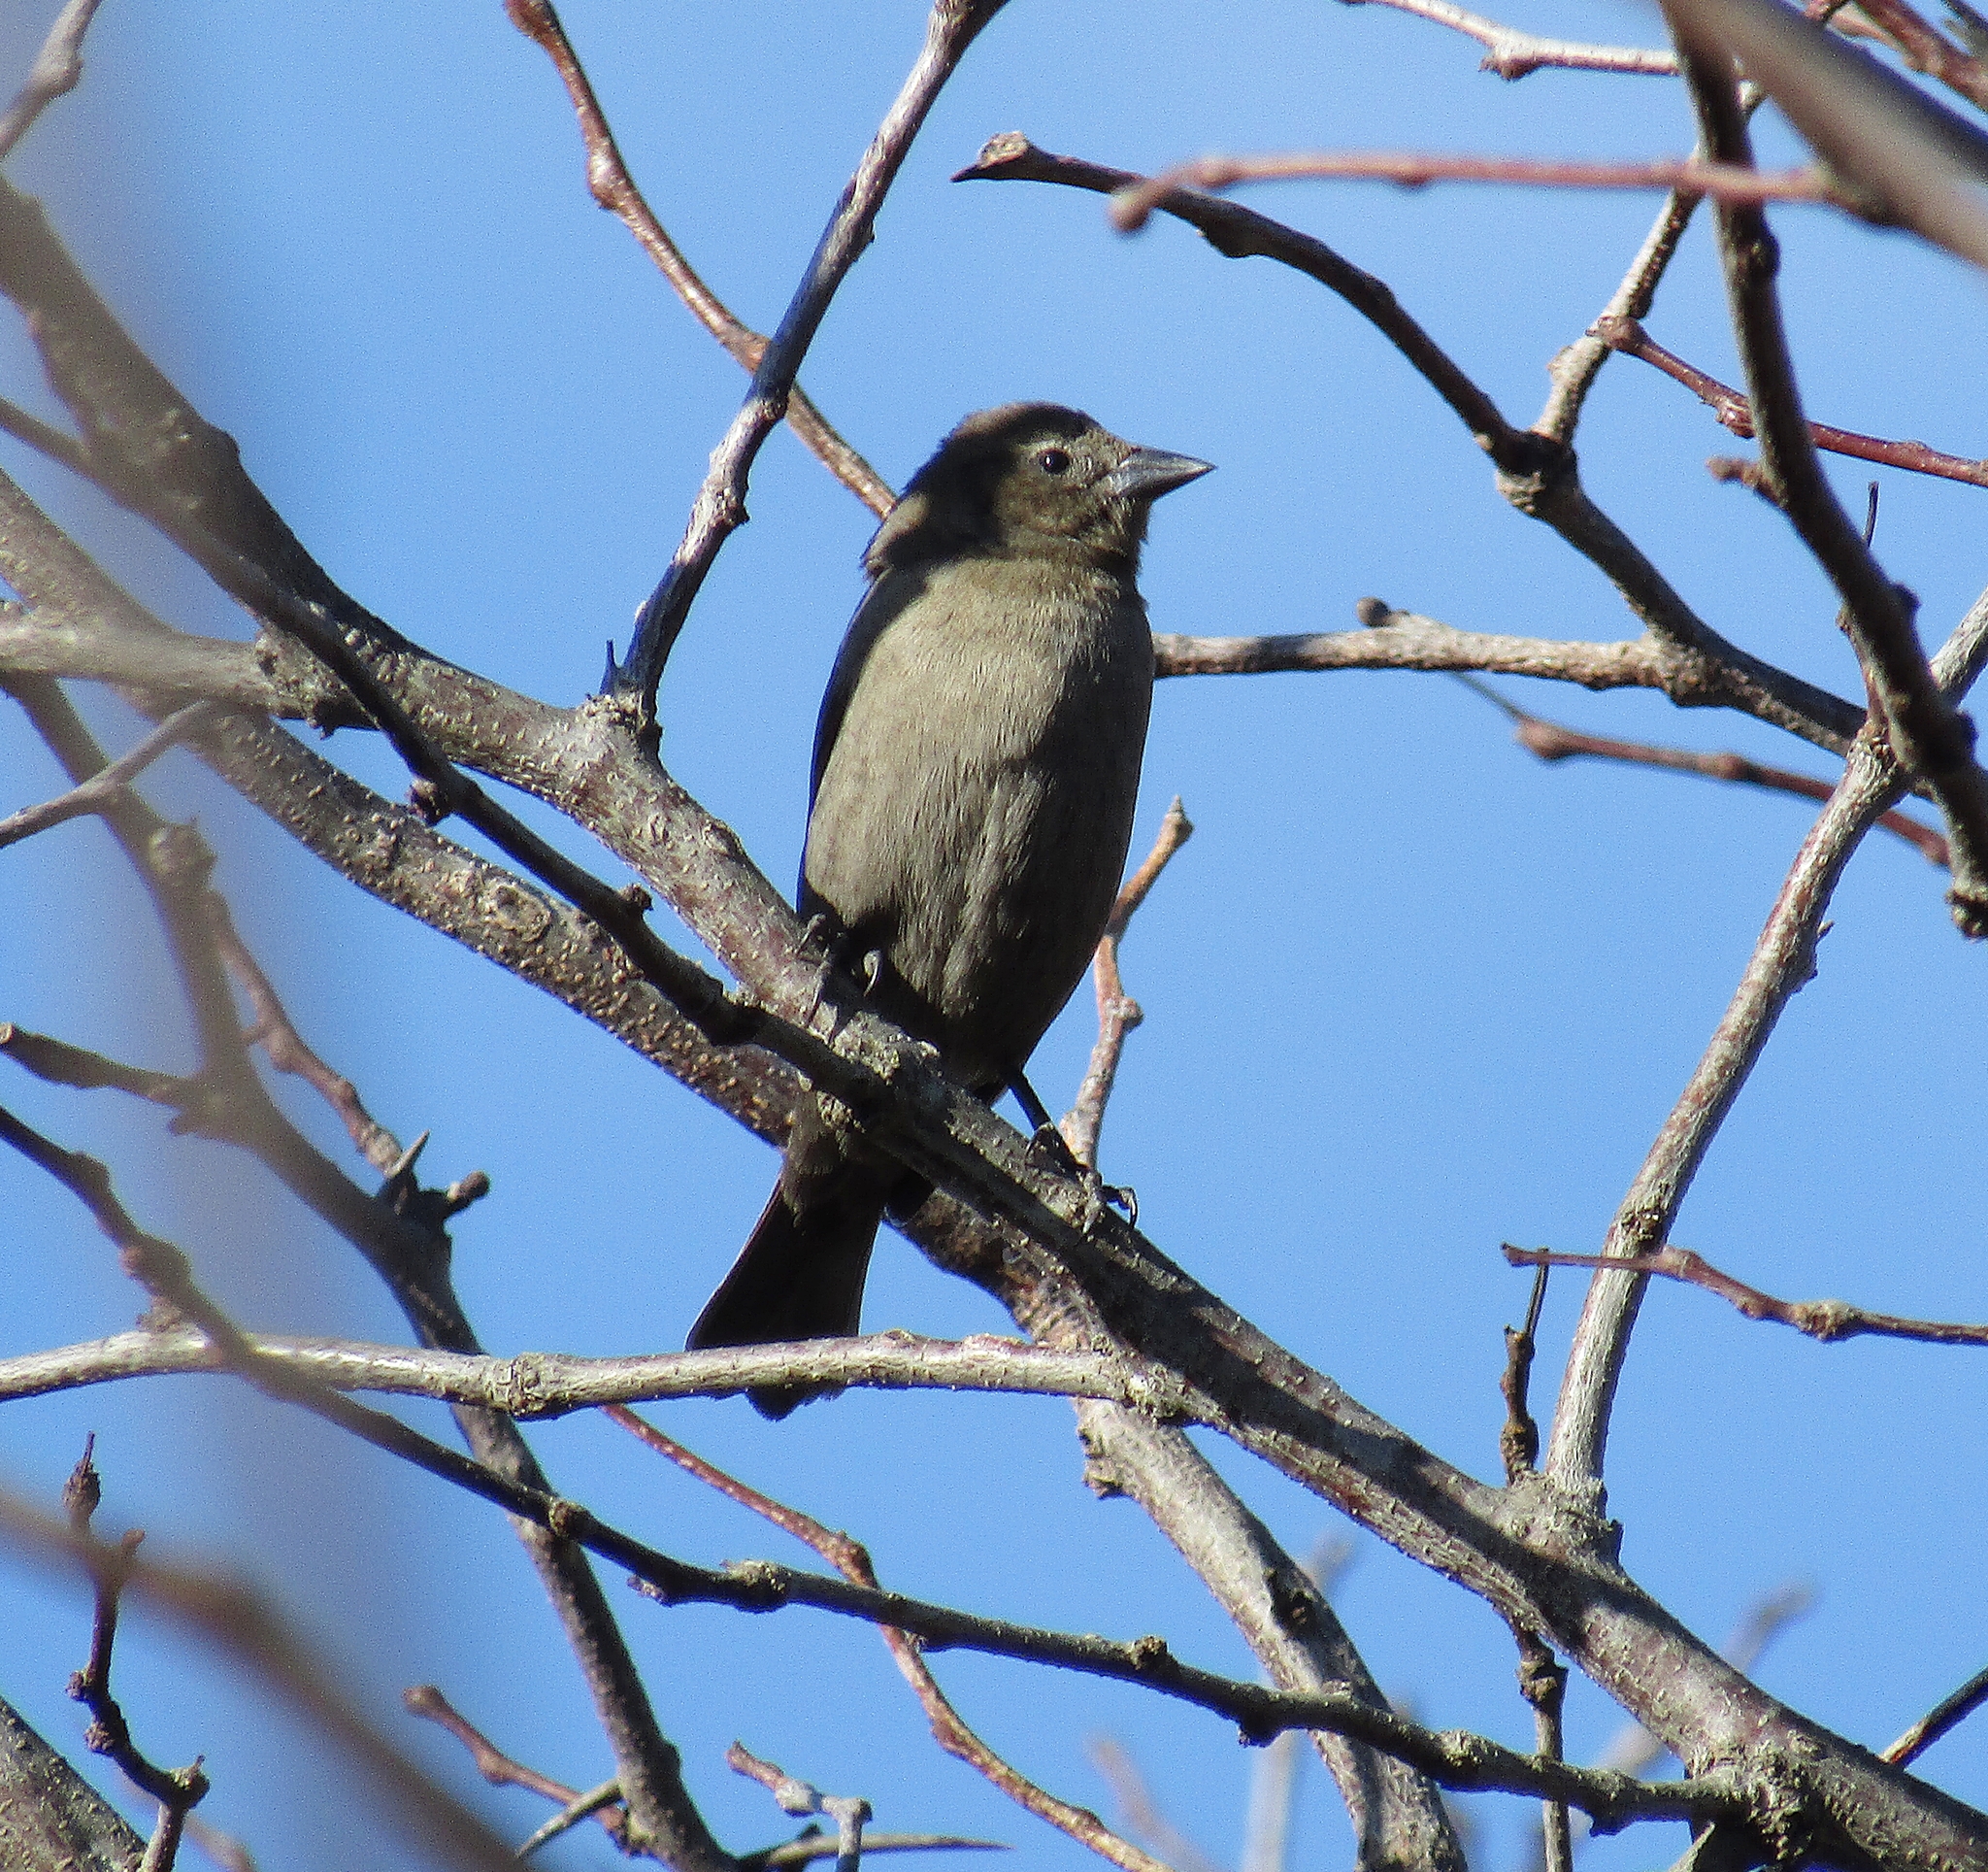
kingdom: Animalia
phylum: Chordata
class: Aves
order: Passeriformes
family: Icteridae
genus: Molothrus
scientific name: Molothrus bonariensis
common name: Shiny cowbird
